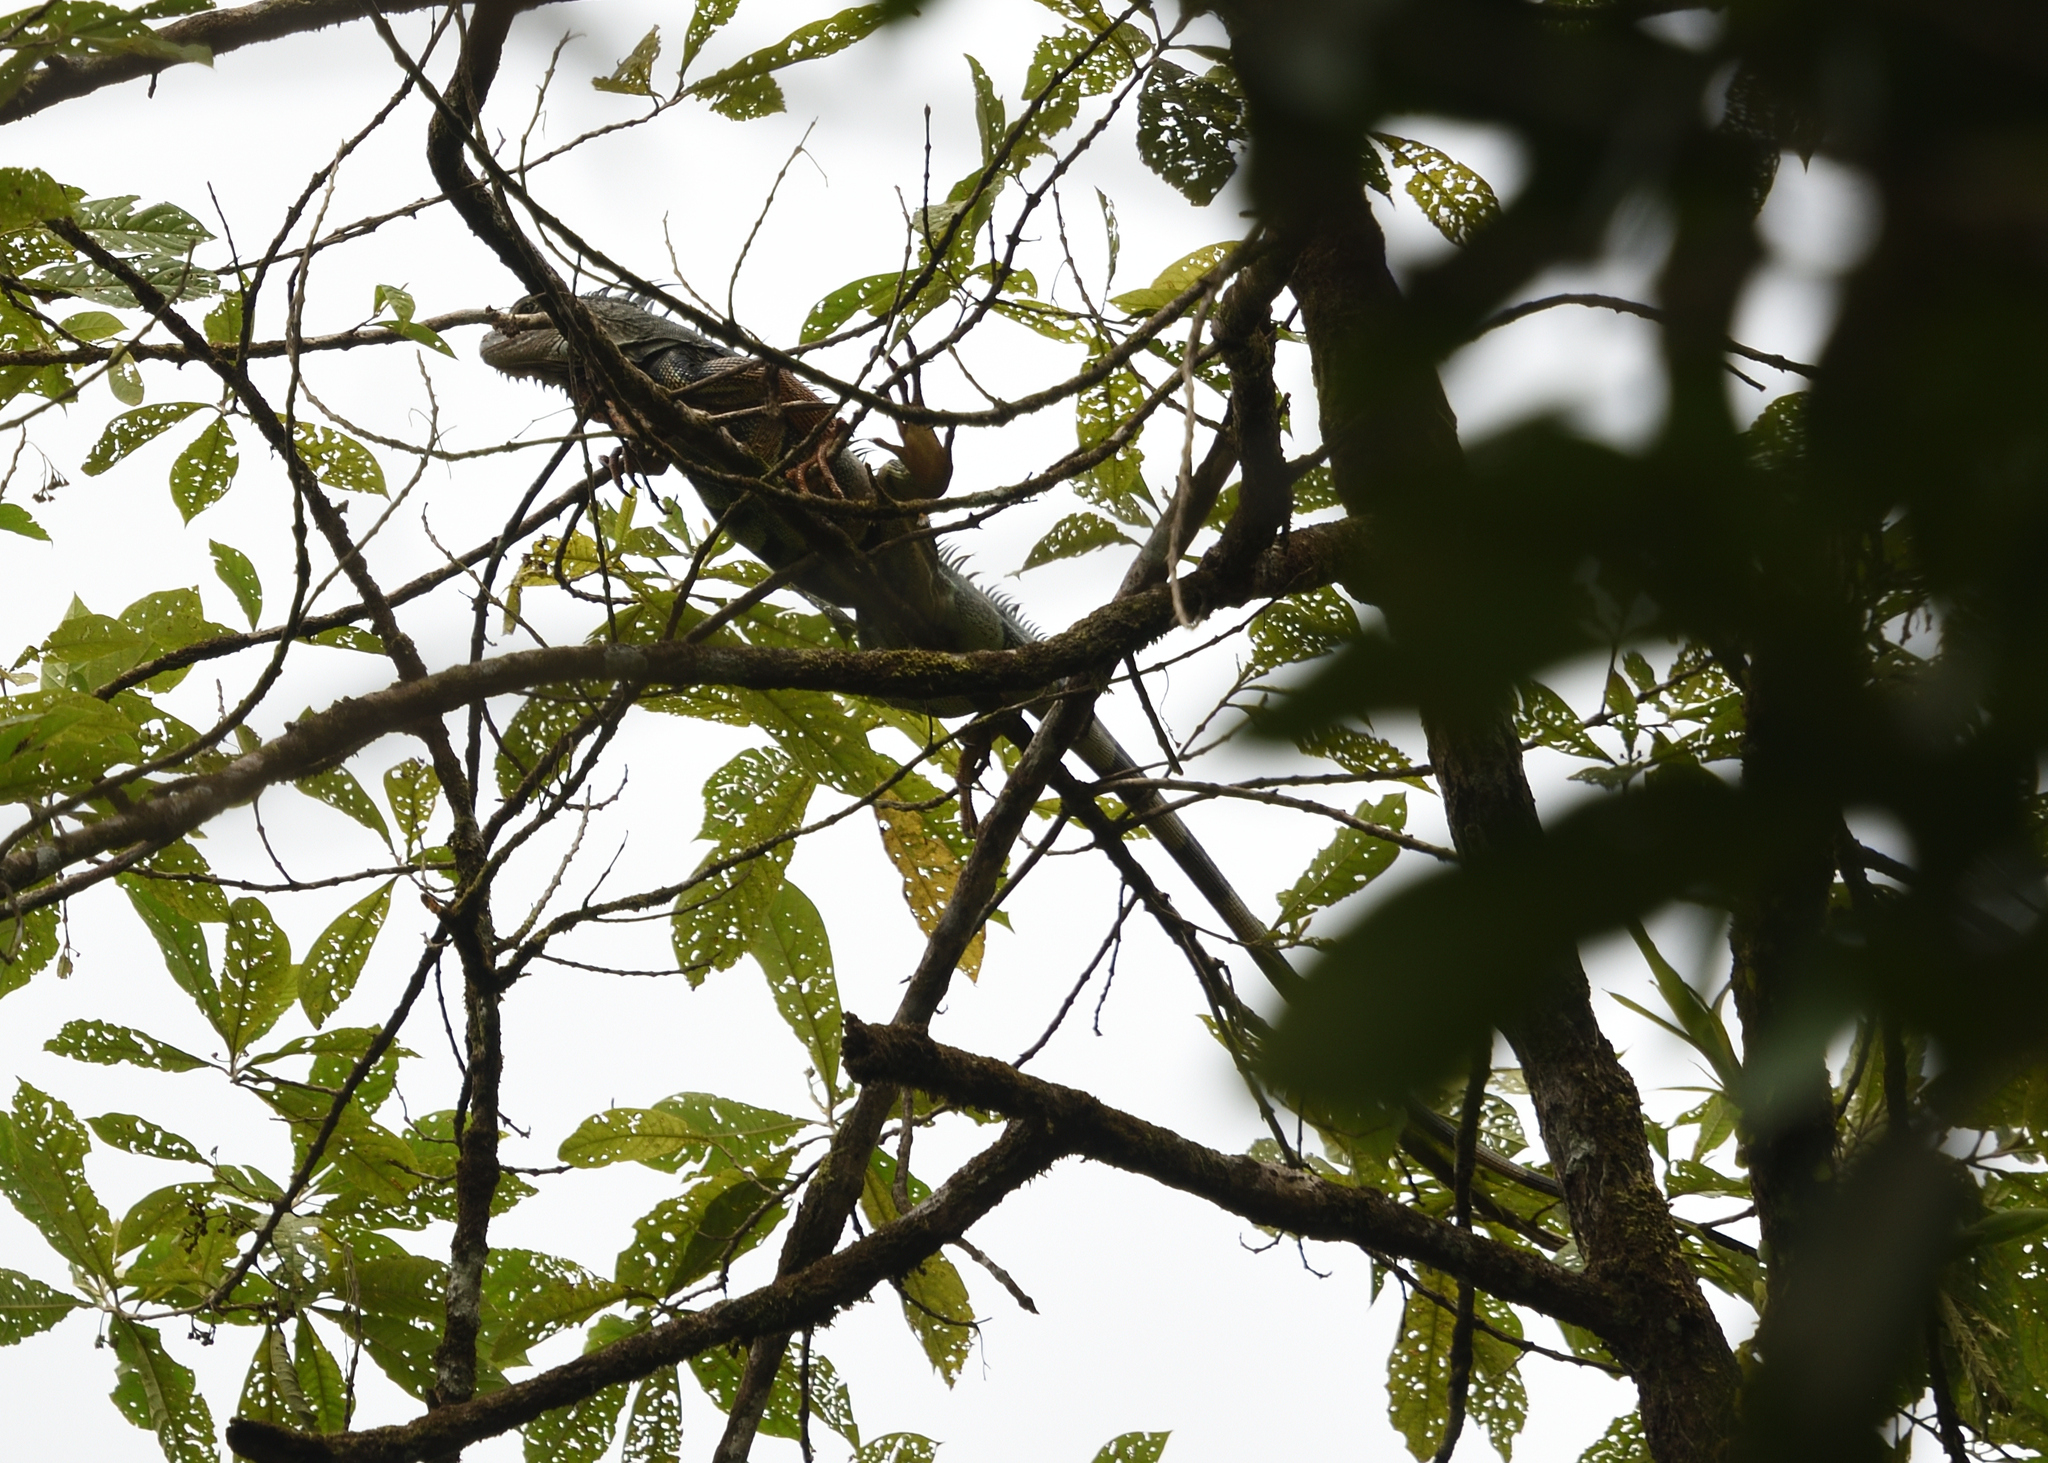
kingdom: Animalia
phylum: Chordata
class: Squamata
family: Iguanidae
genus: Iguana
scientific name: Iguana iguana
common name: Green iguana
